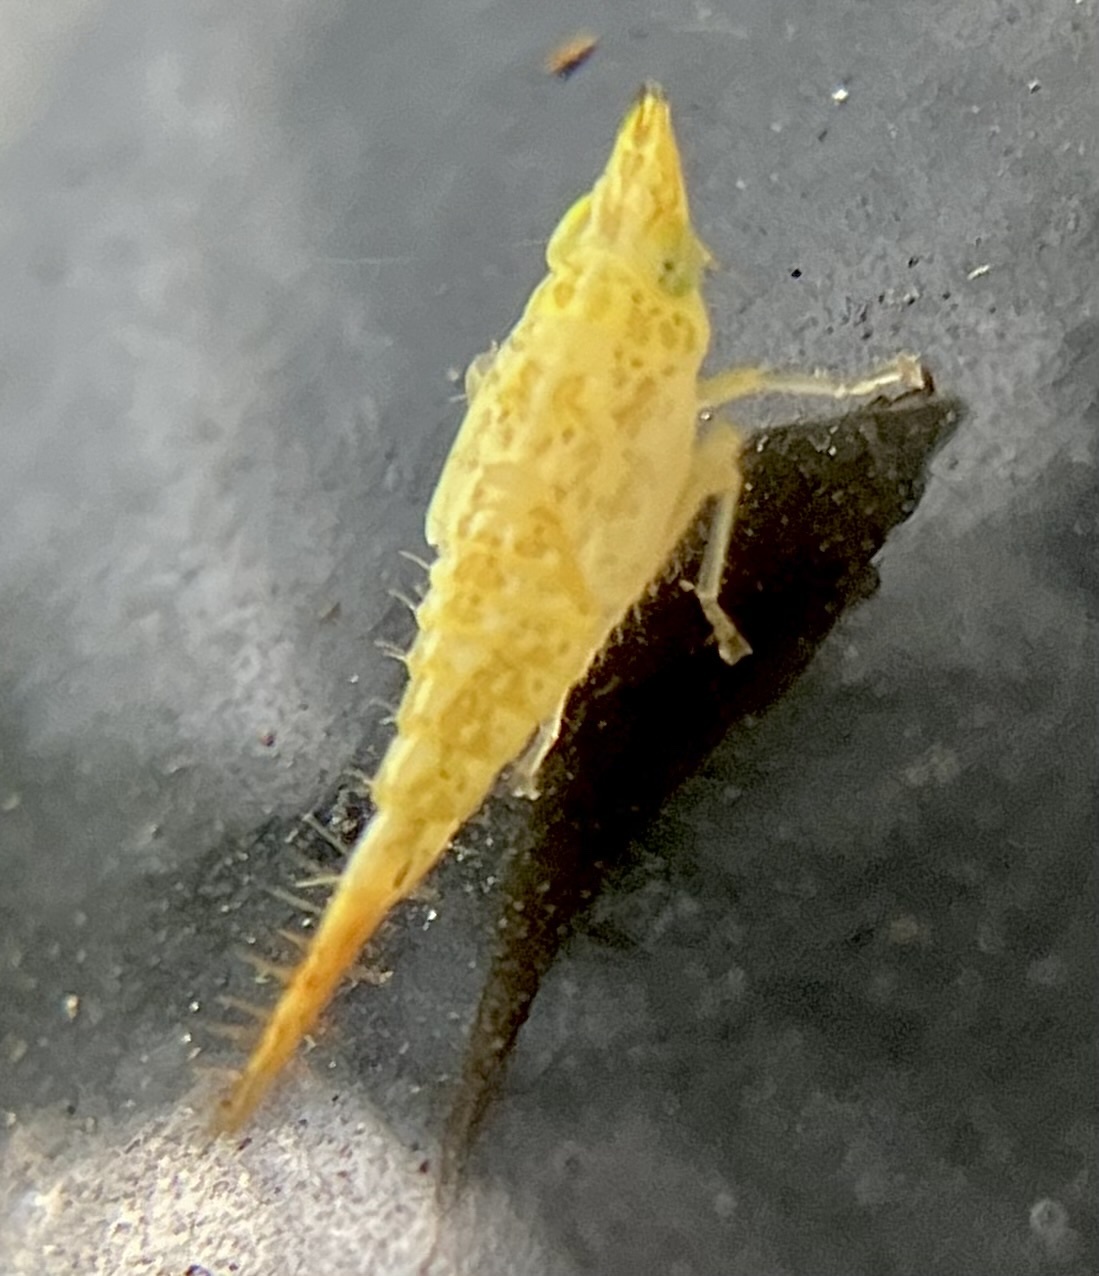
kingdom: Animalia
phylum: Arthropoda
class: Insecta
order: Hemiptera
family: Cicadellidae
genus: Japananus
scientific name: Japananus hyalinus
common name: The japanese maple leafhopper
